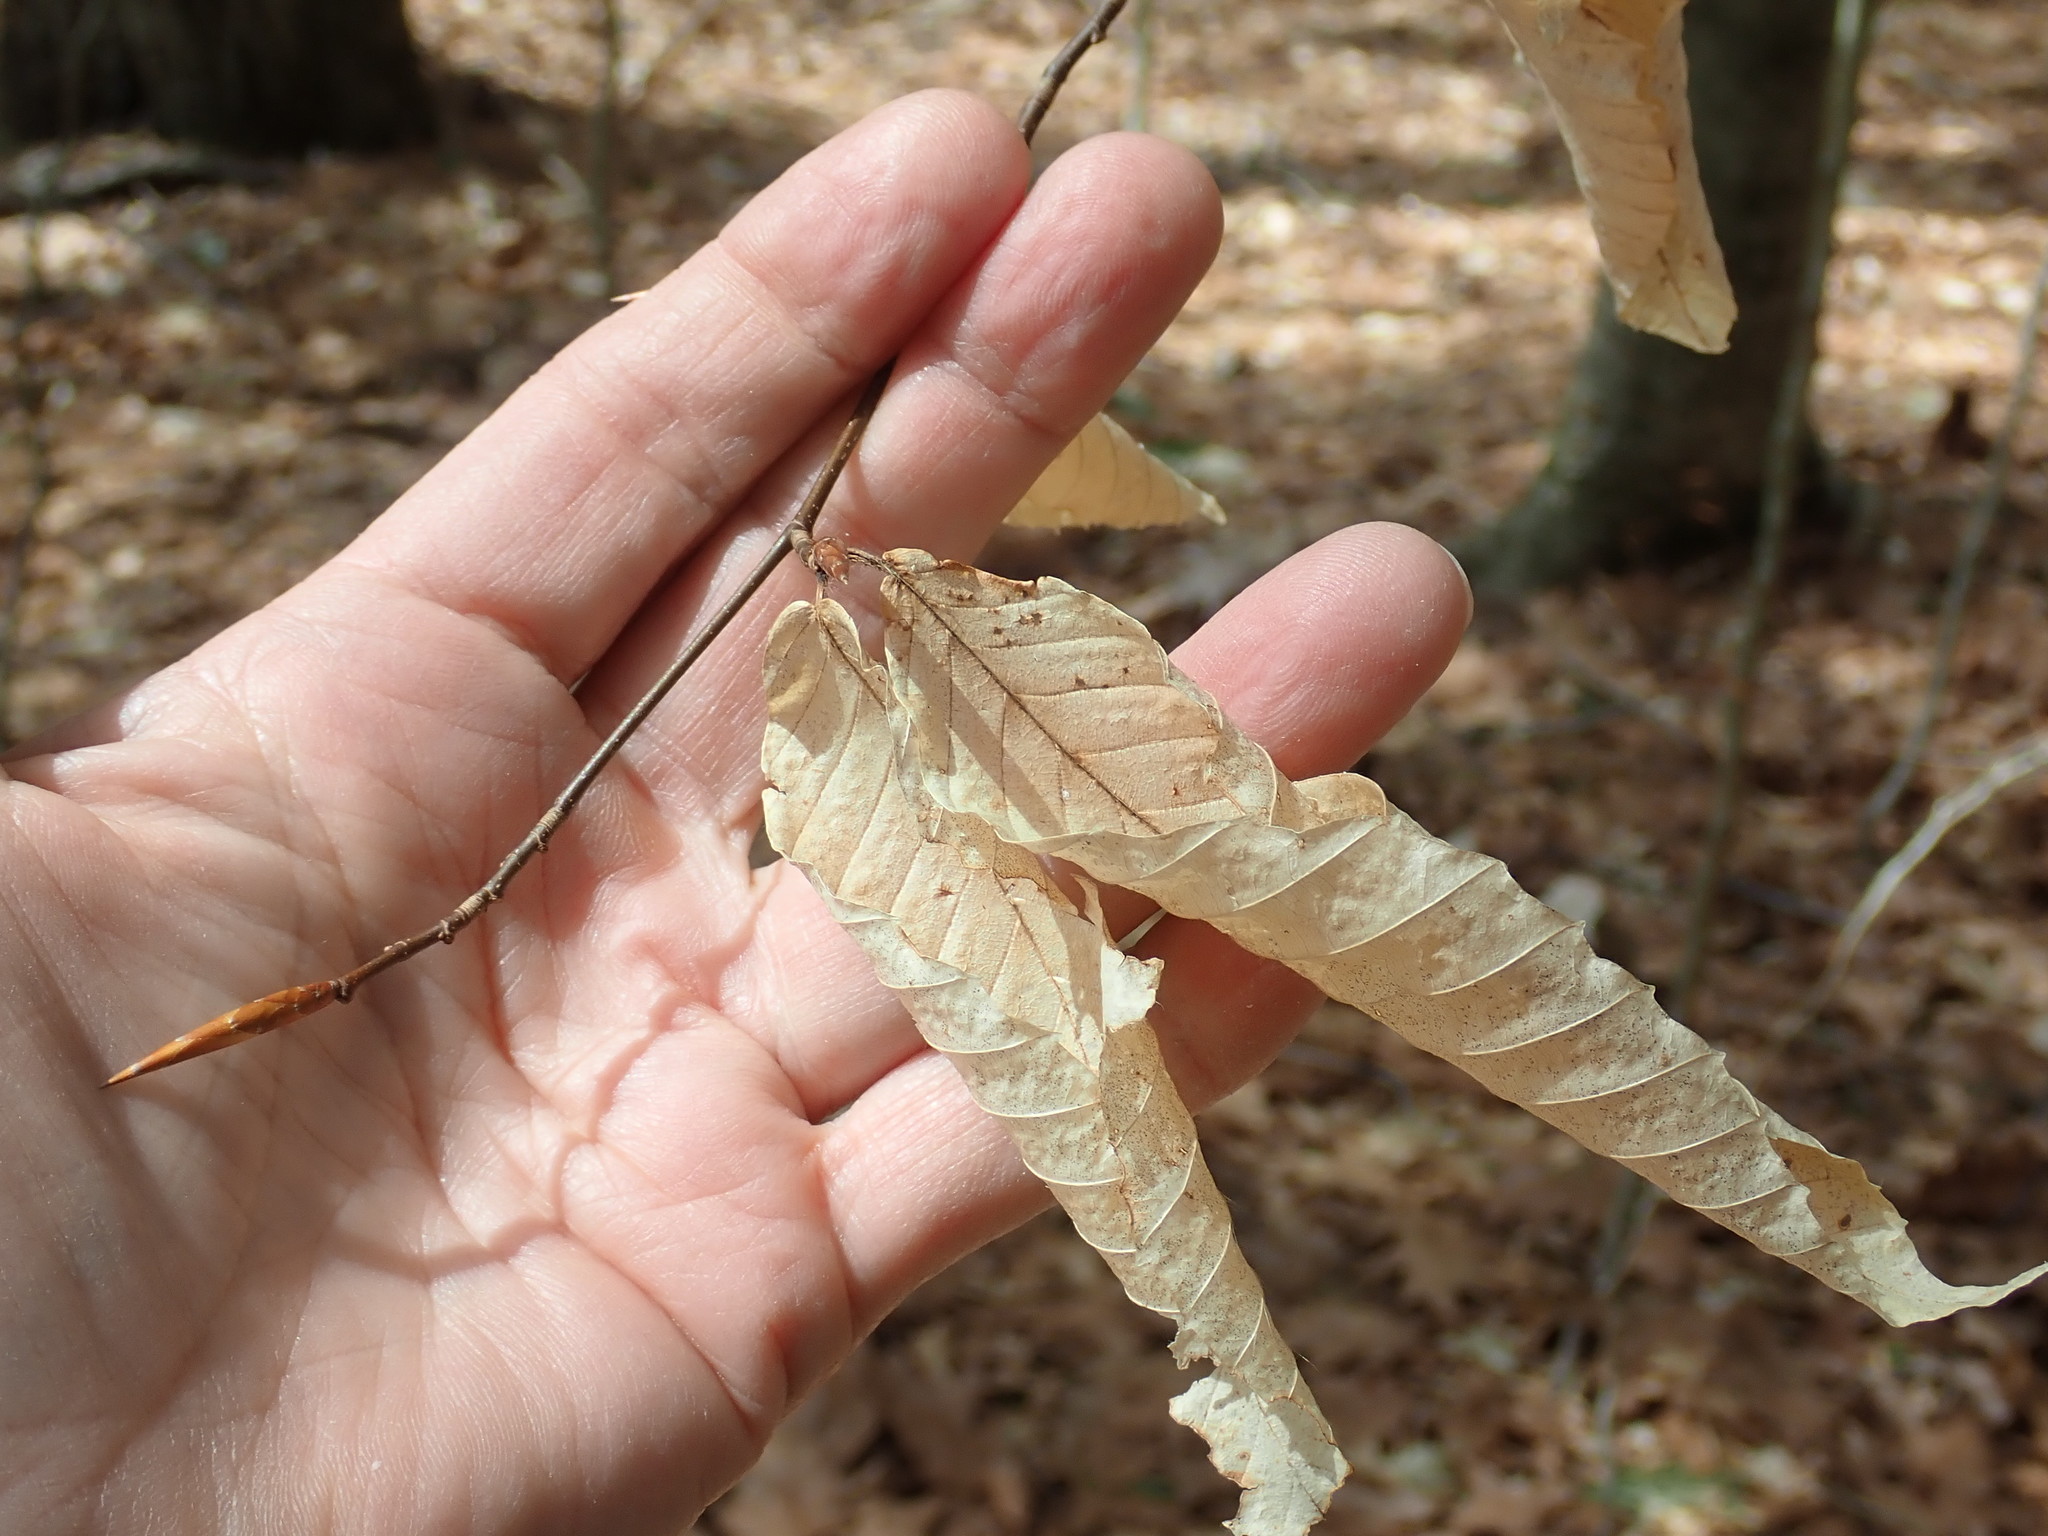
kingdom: Plantae
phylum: Tracheophyta
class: Magnoliopsida
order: Fagales
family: Fagaceae
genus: Fagus
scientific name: Fagus grandifolia
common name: American beech
